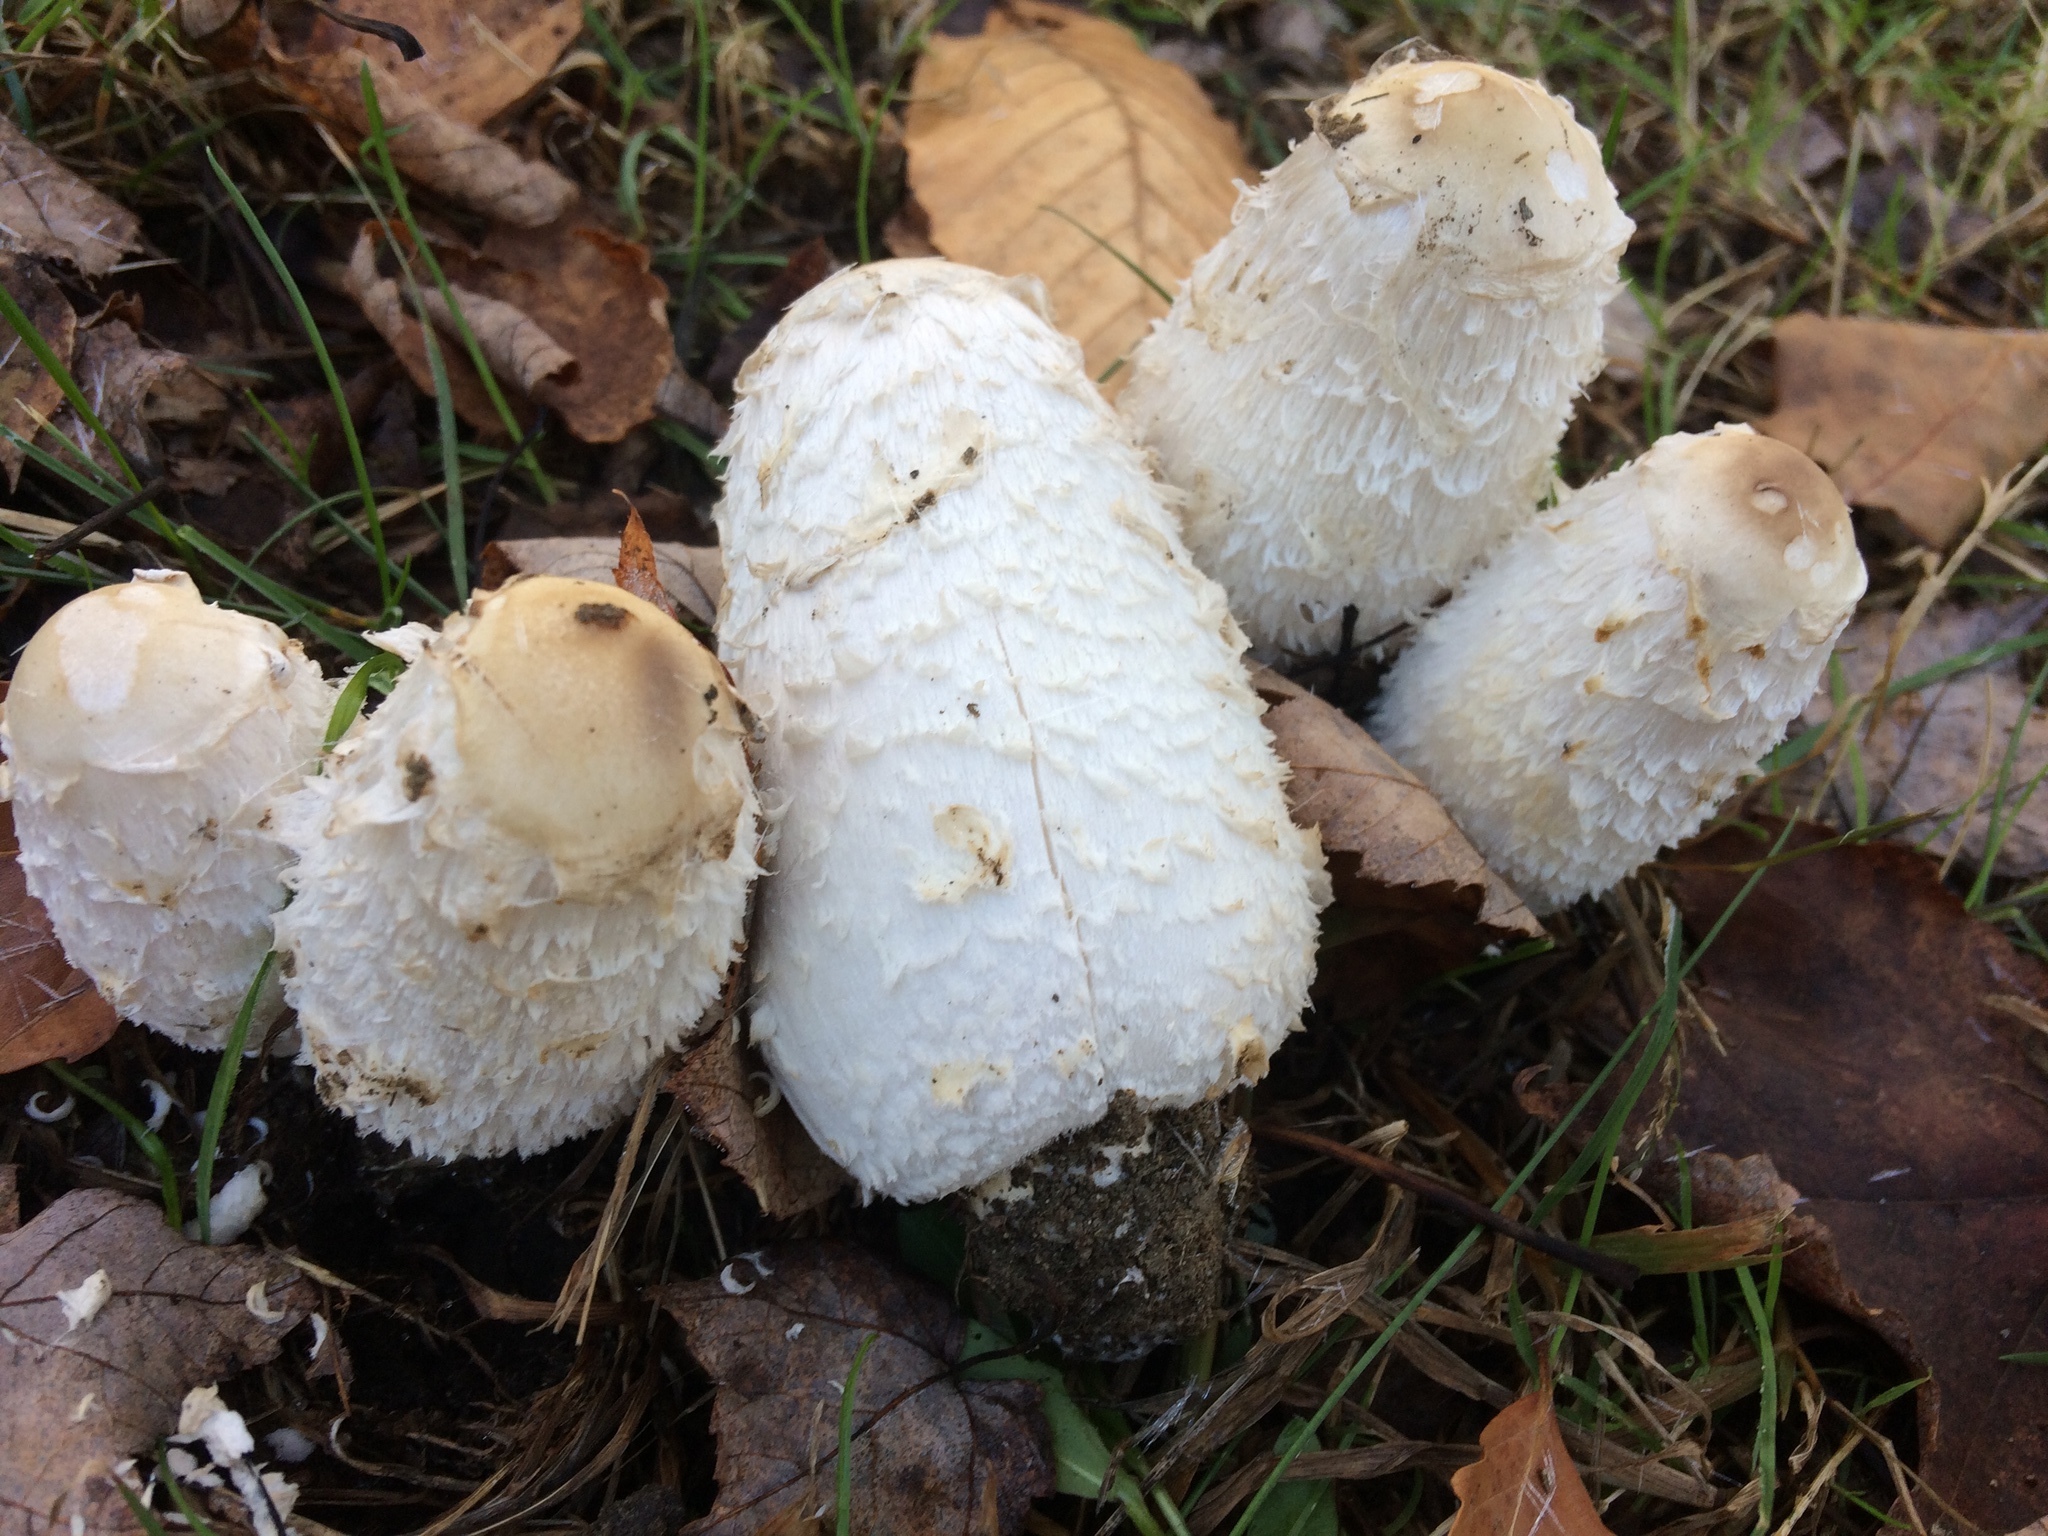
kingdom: Fungi
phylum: Basidiomycota
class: Agaricomycetes
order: Agaricales
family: Agaricaceae
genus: Coprinus
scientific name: Coprinus comatus
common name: Lawyer's wig
